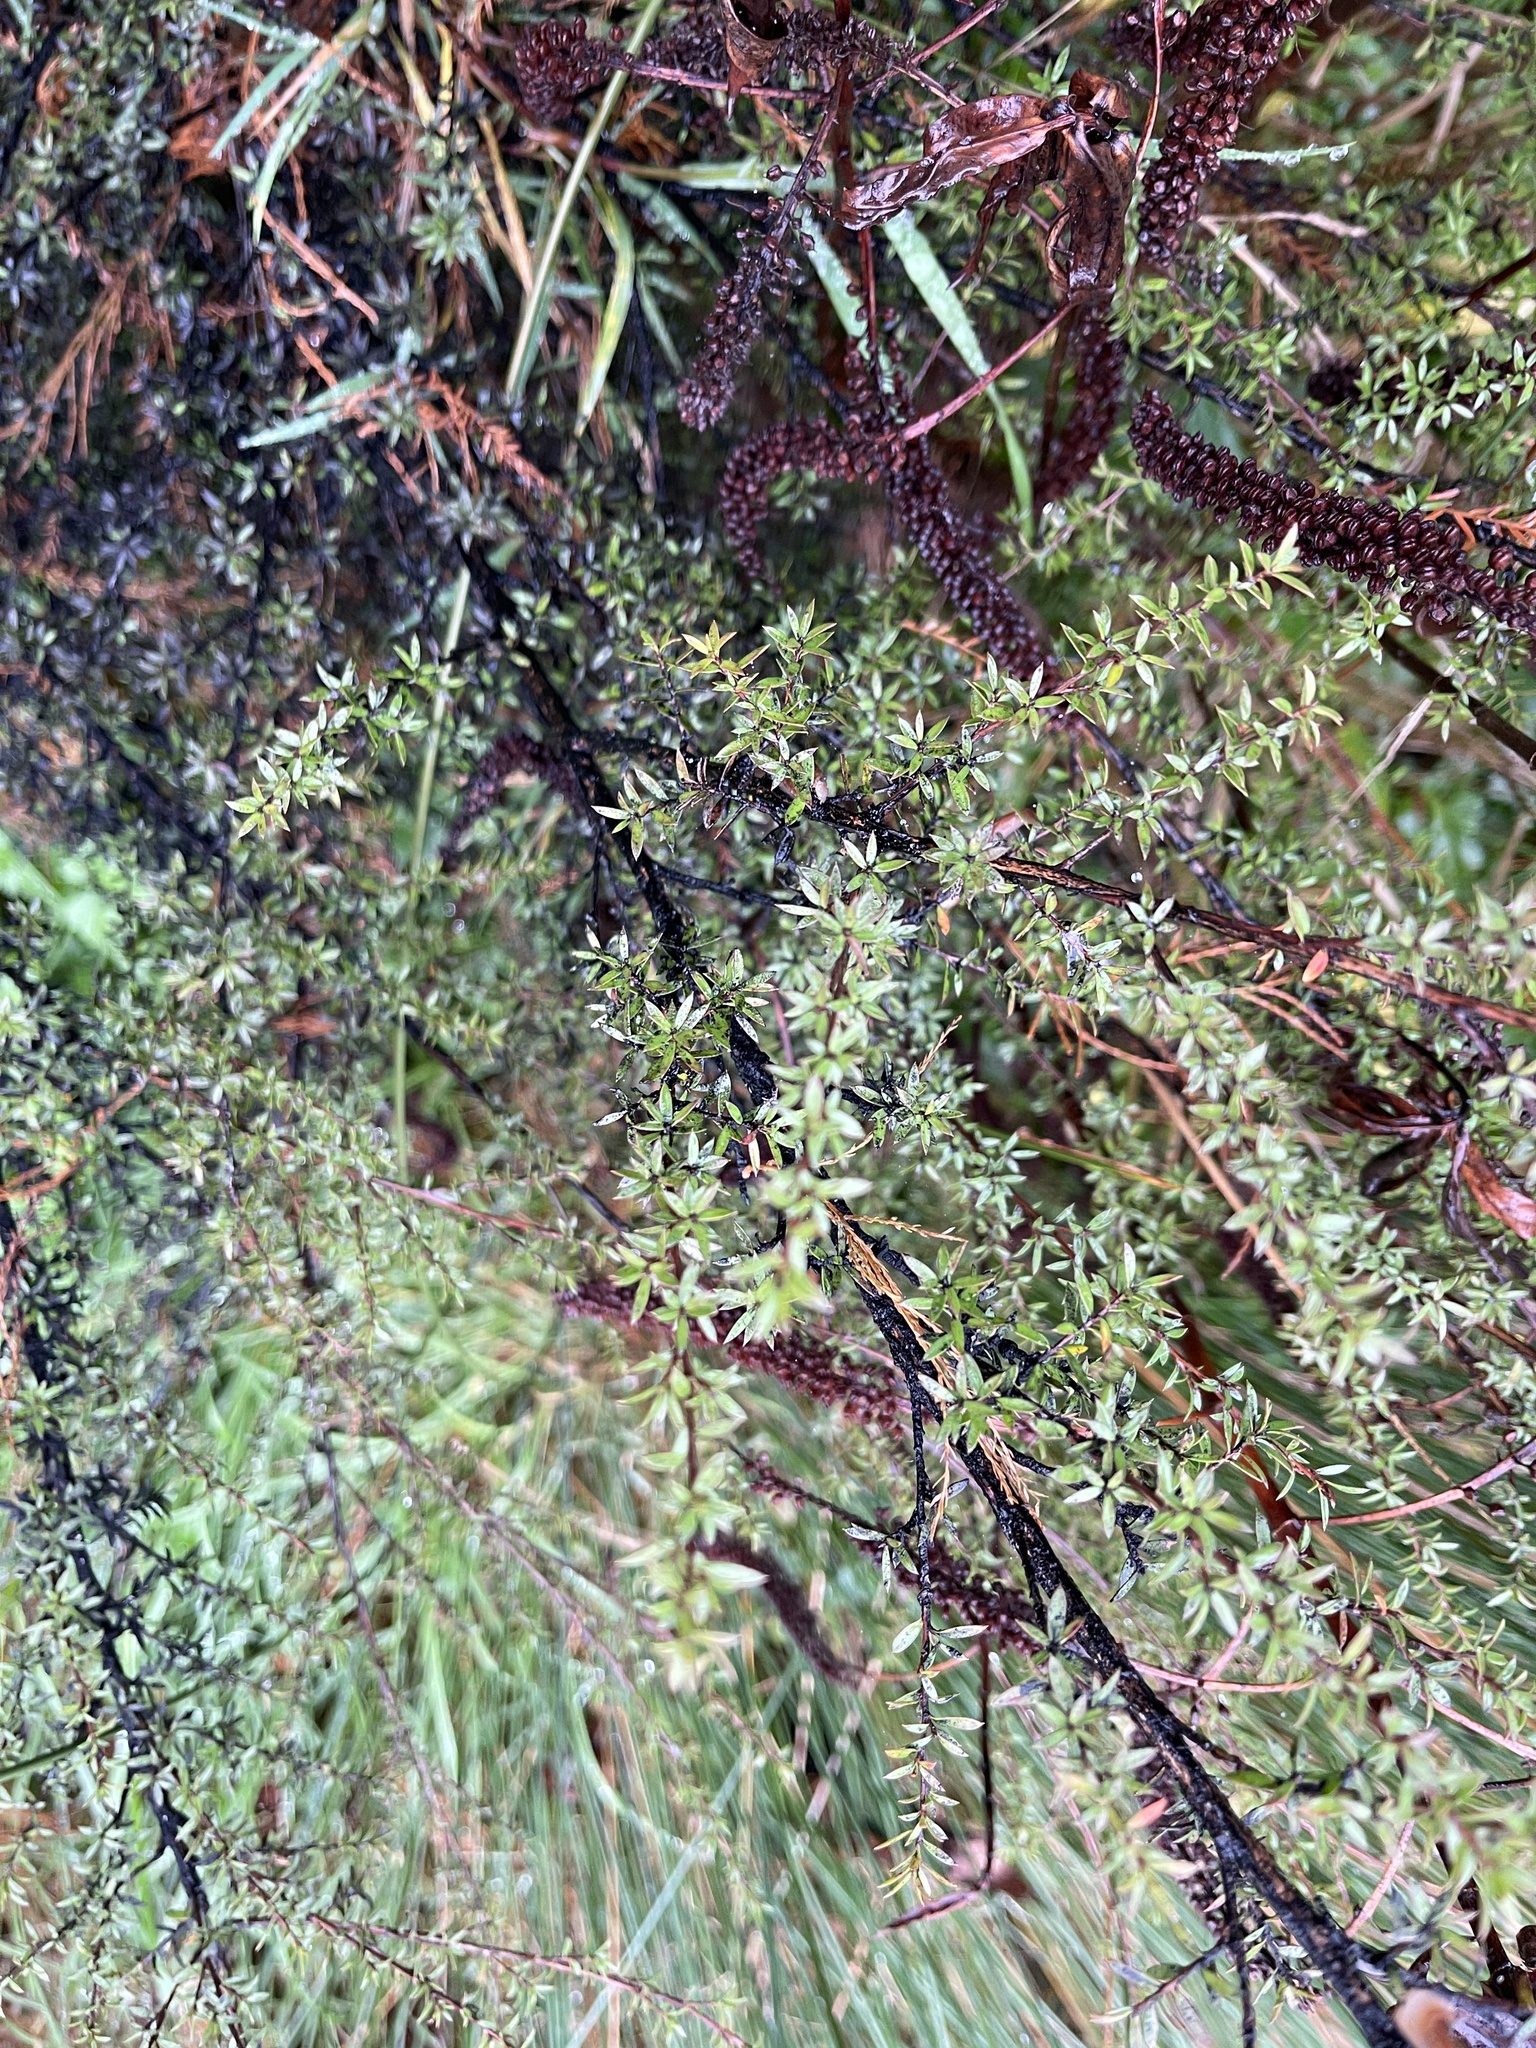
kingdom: Plantae
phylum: Tracheophyta
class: Magnoliopsida
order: Myrtales
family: Myrtaceae
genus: Leptospermum
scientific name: Leptospermum scoparium
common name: Broom tea-tree
